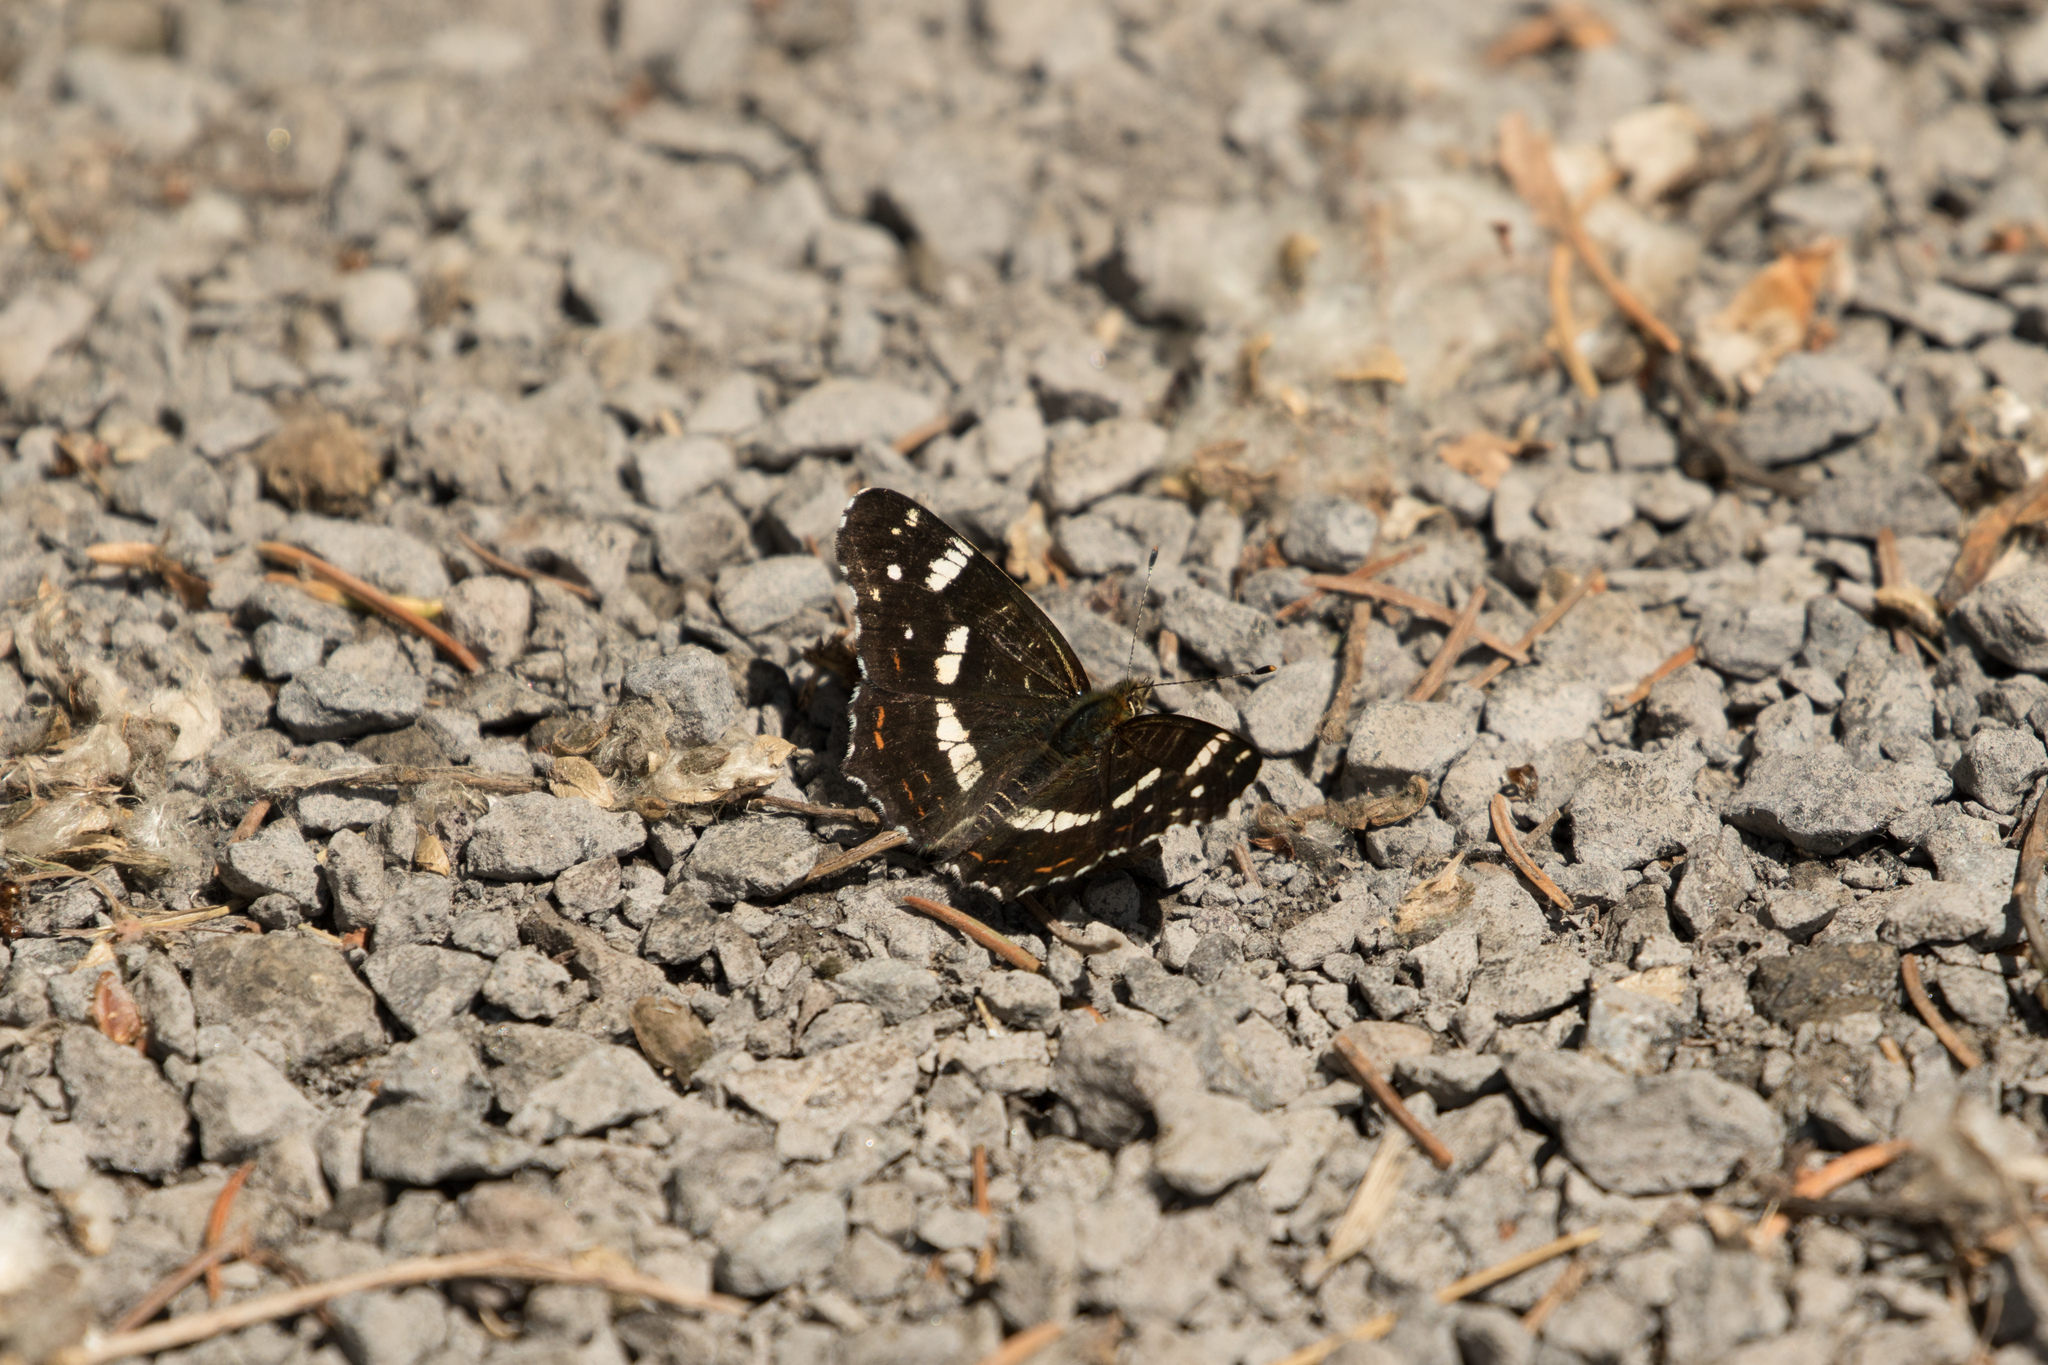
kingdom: Animalia
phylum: Arthropoda
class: Insecta
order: Lepidoptera
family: Nymphalidae
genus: Araschnia
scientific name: Araschnia levana
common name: Map butterfly
